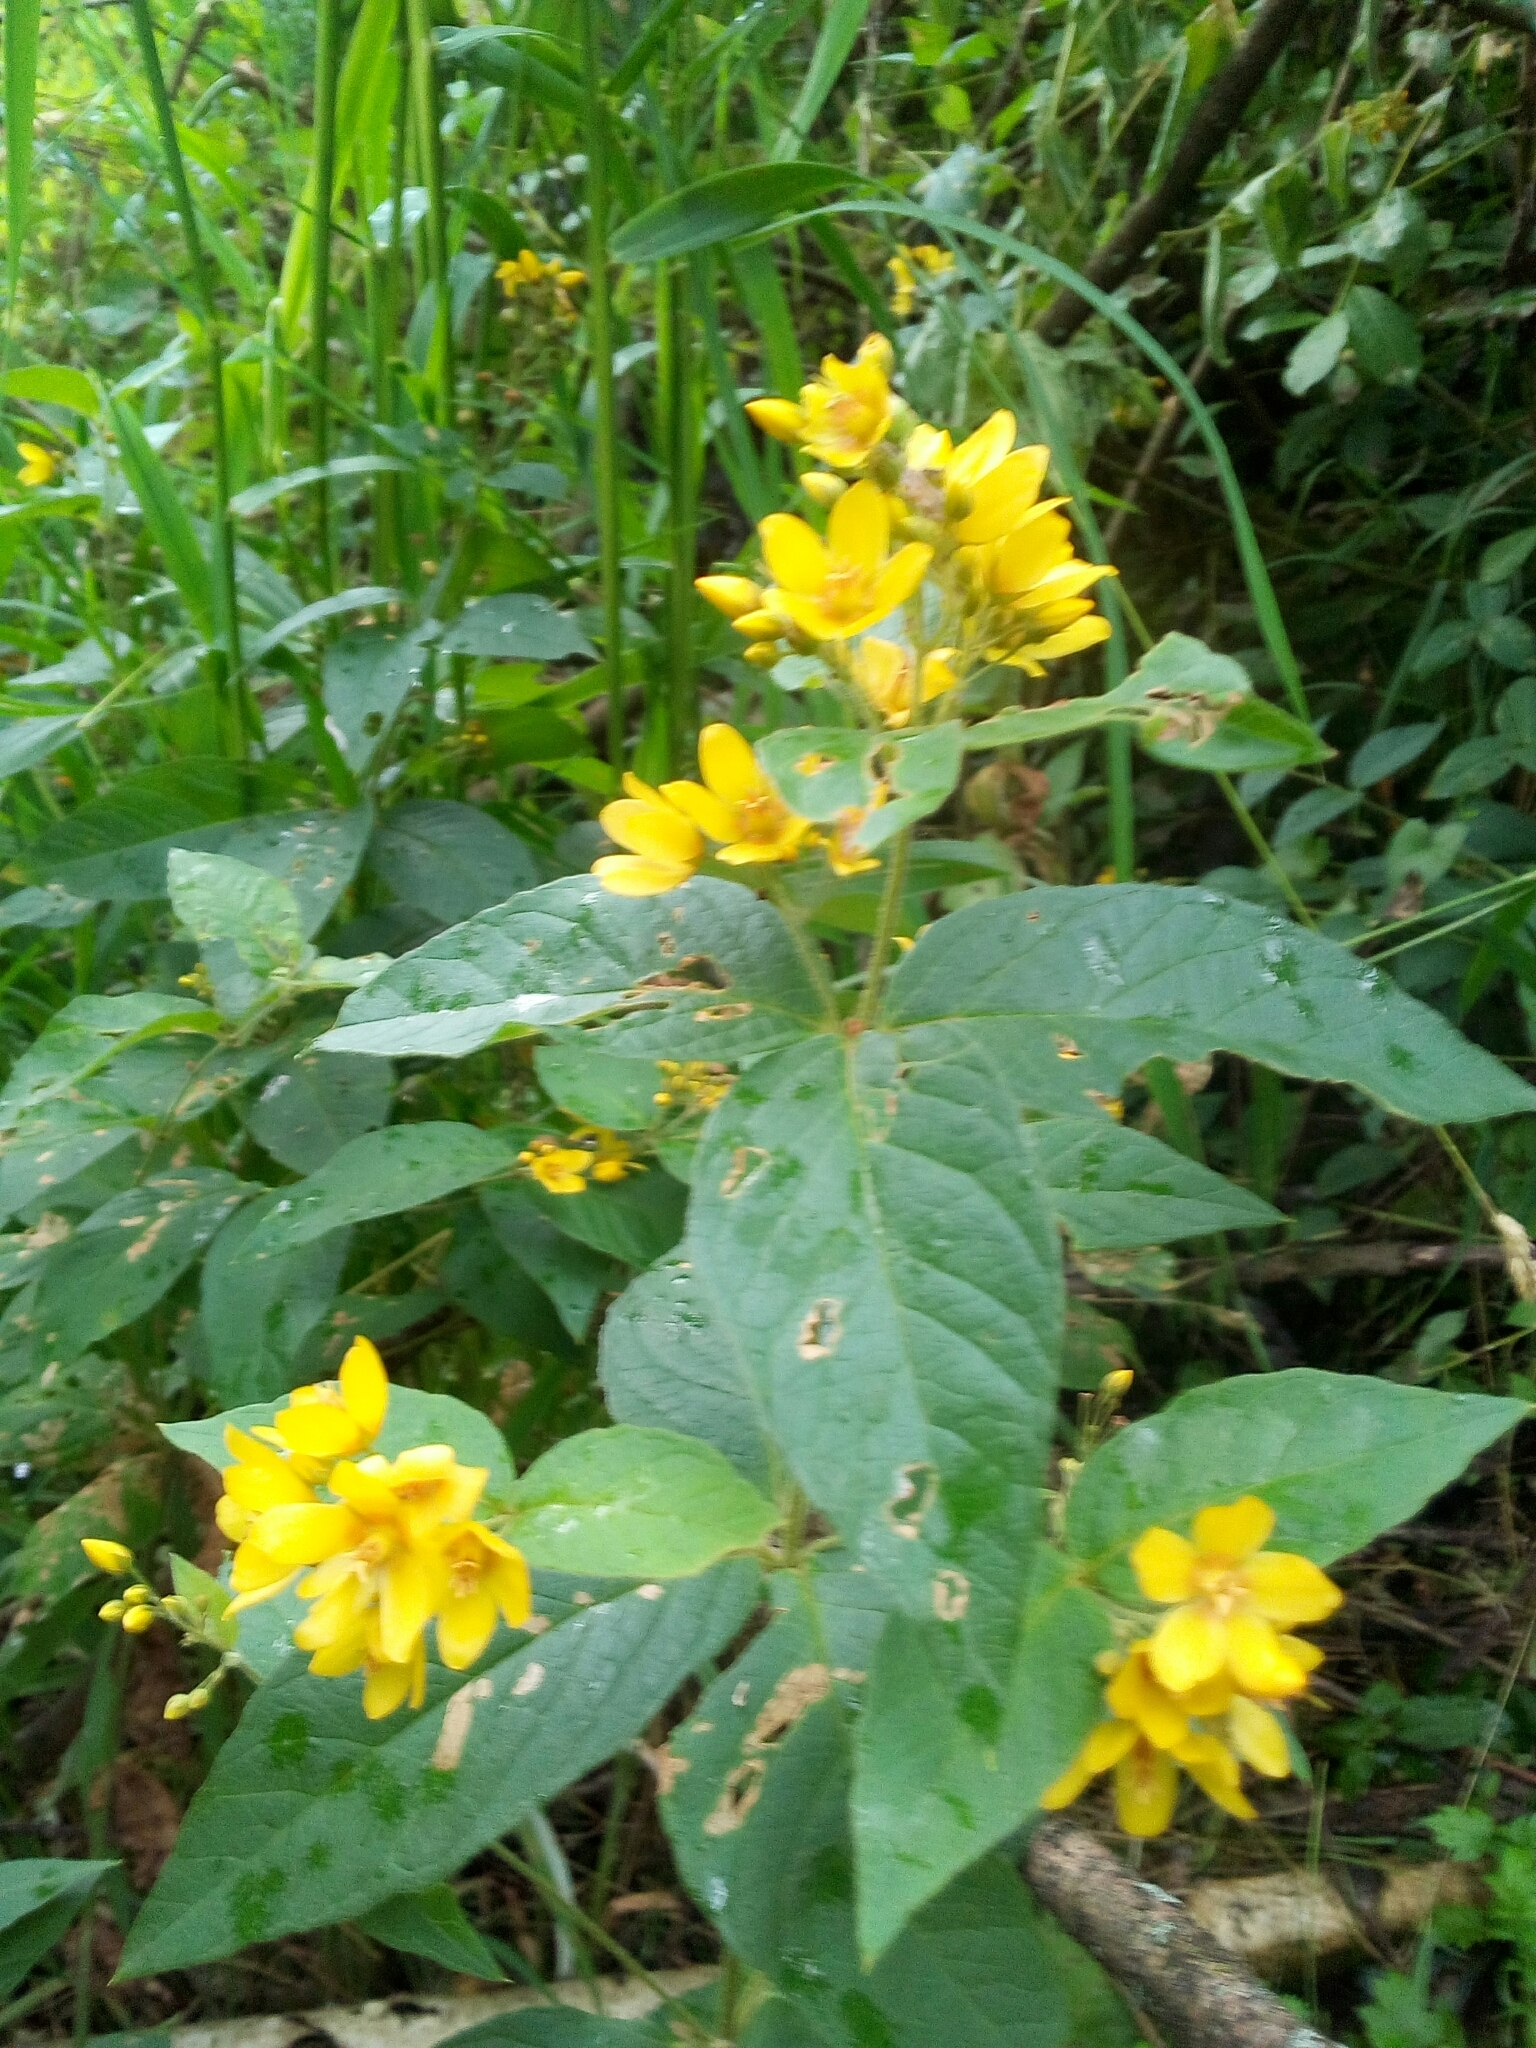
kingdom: Plantae
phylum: Tracheophyta
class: Magnoliopsida
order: Ericales
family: Primulaceae
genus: Lysimachia
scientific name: Lysimachia vulgaris
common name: Yellow loosestrife
